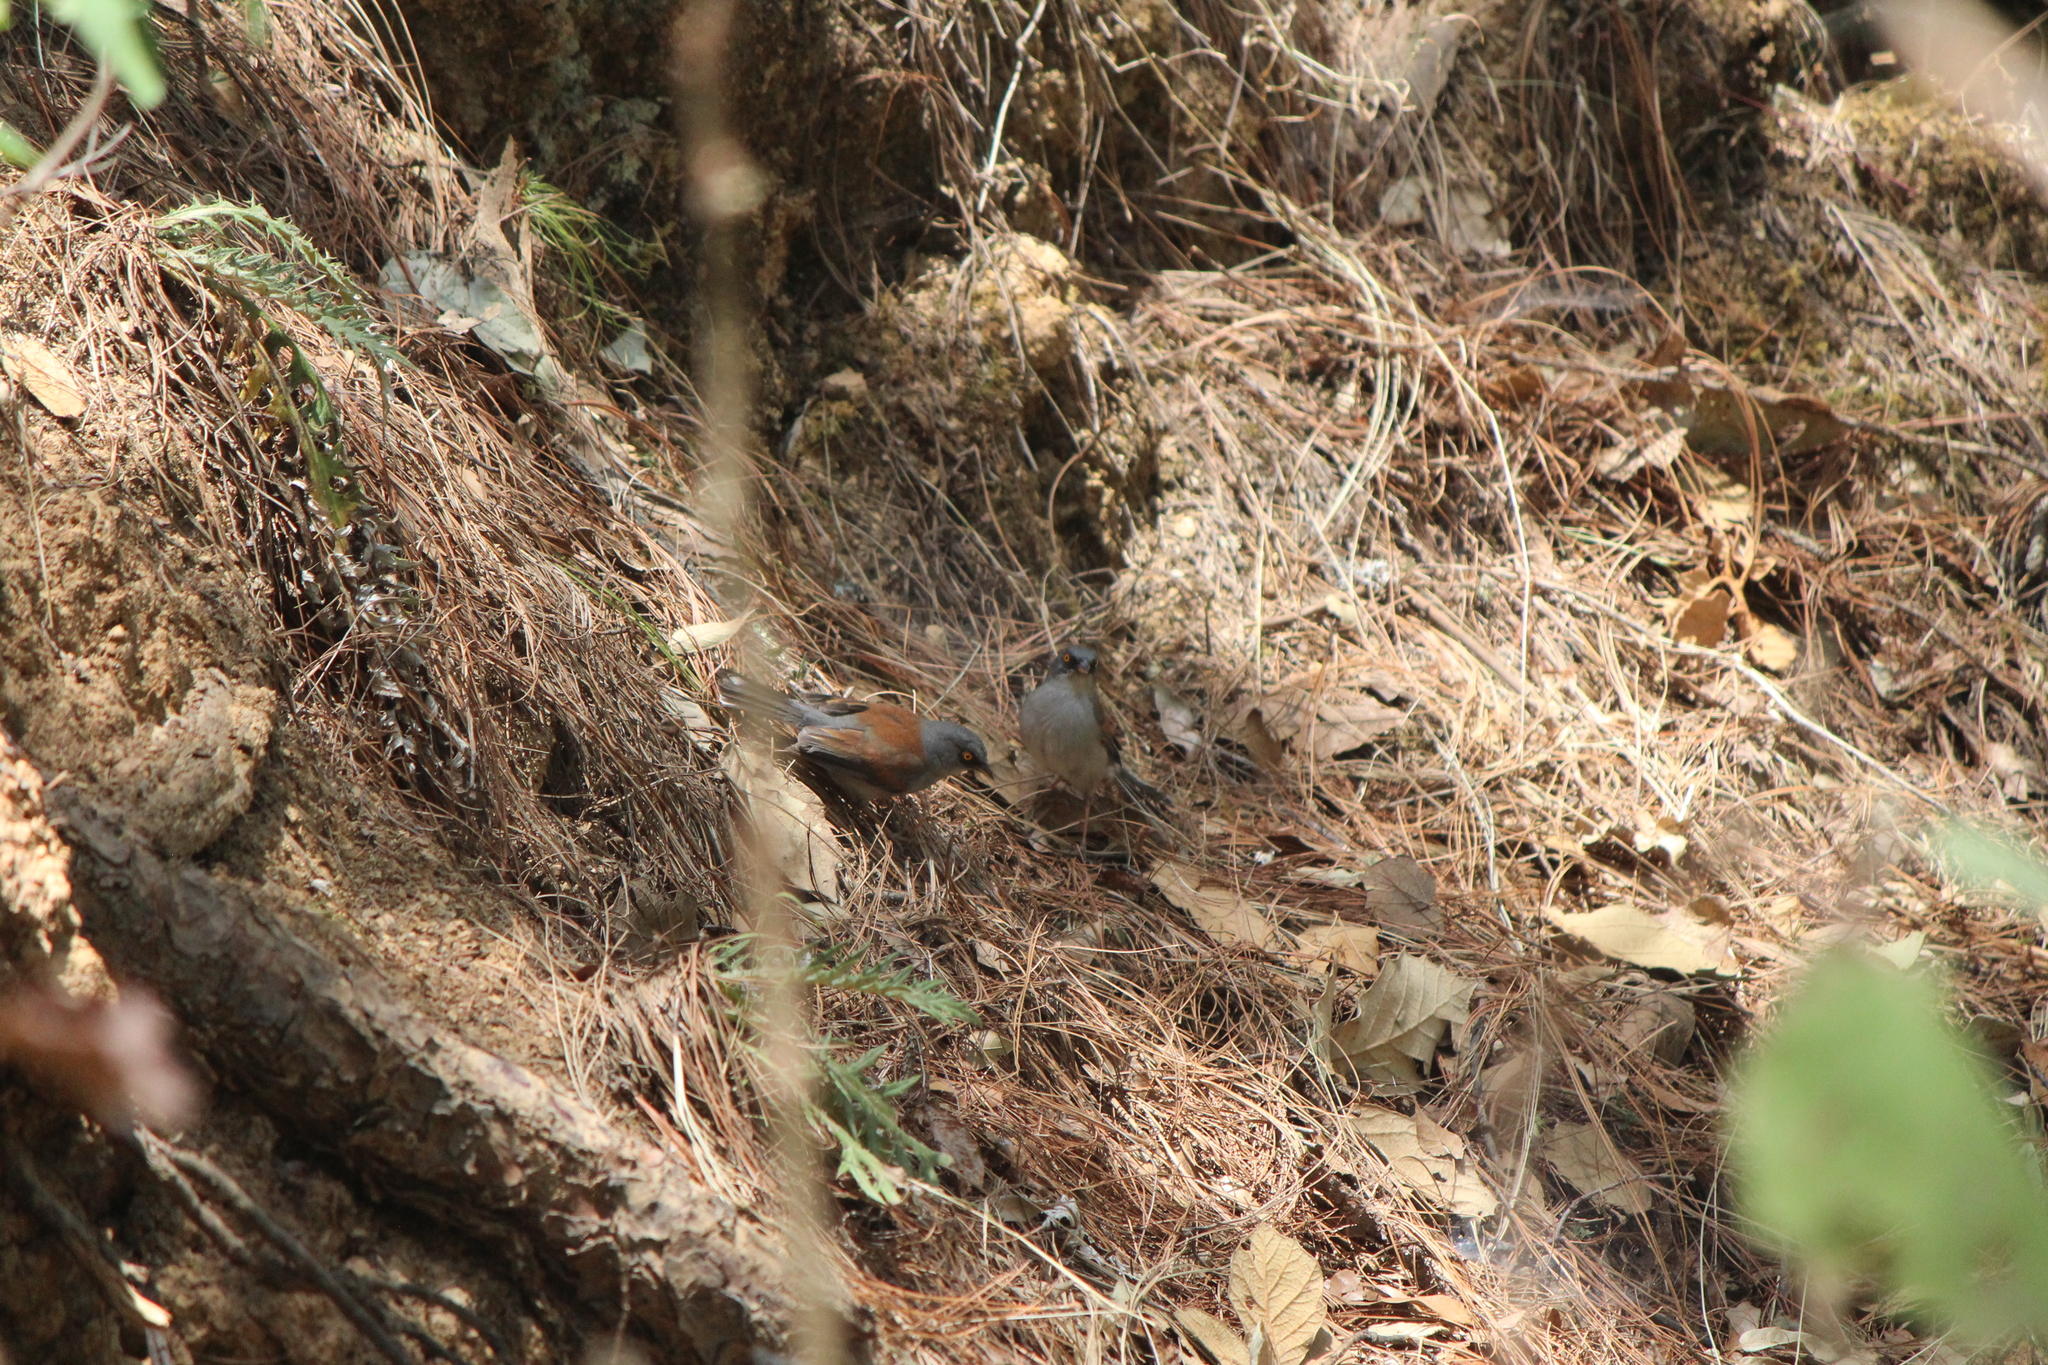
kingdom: Animalia
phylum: Chordata
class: Aves
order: Passeriformes
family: Passerellidae
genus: Junco
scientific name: Junco phaeonotus
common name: Yellow-eyed junco
